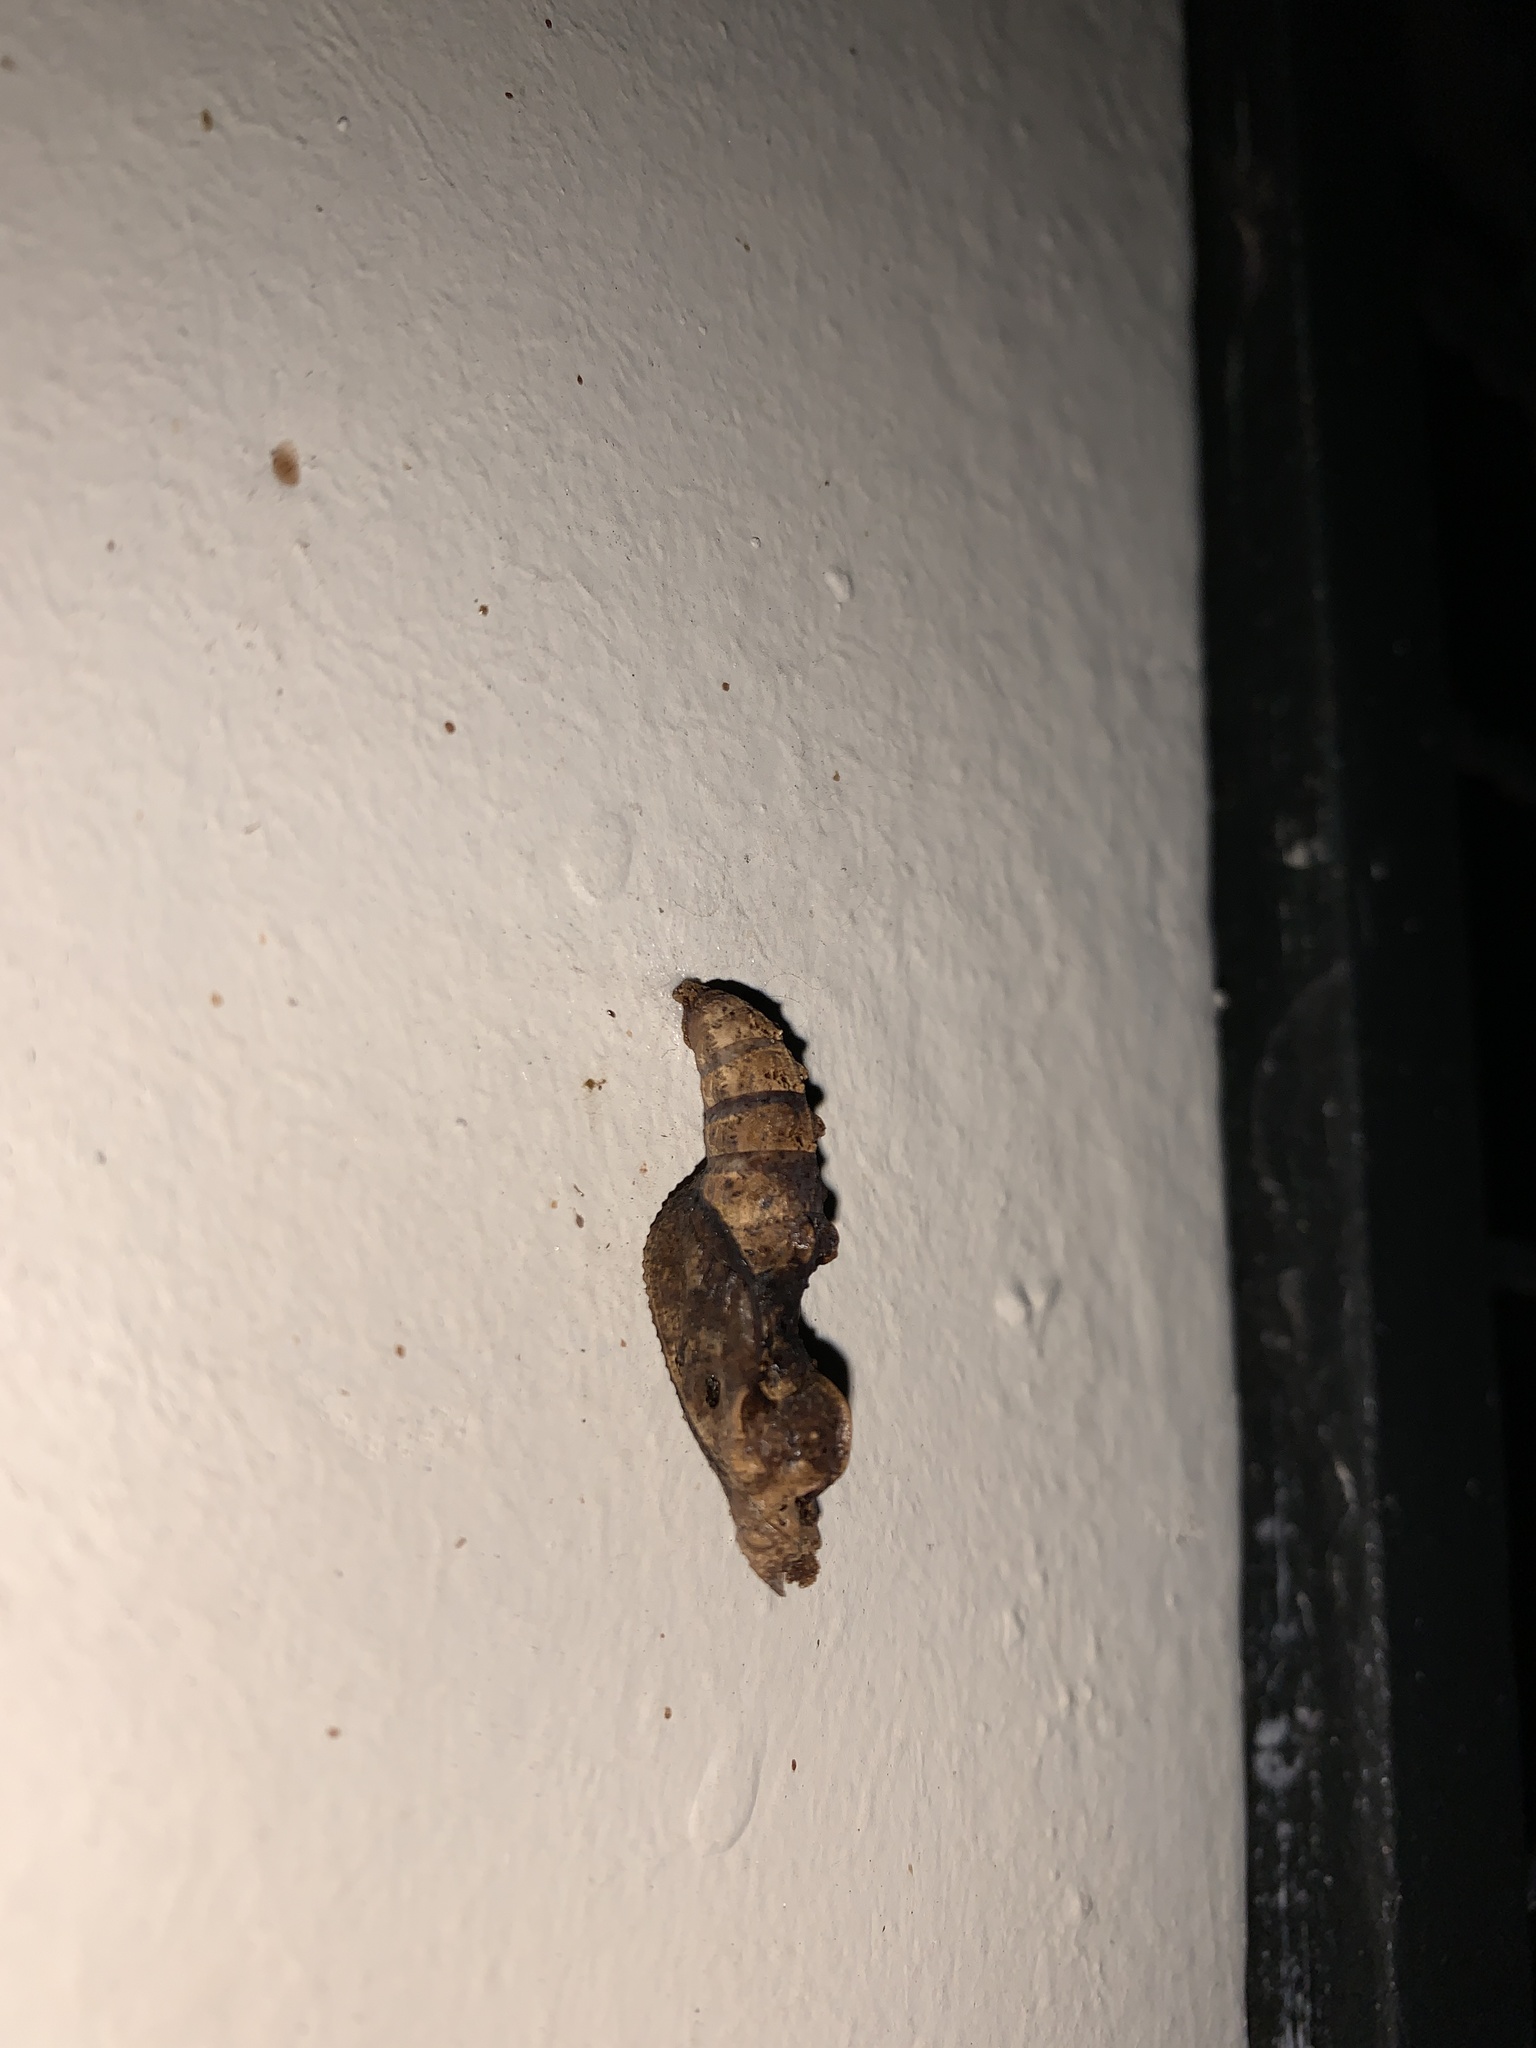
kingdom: Animalia
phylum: Arthropoda
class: Insecta
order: Lepidoptera
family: Nymphalidae
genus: Dione
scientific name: Dione vanillae
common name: Gulf fritillary
